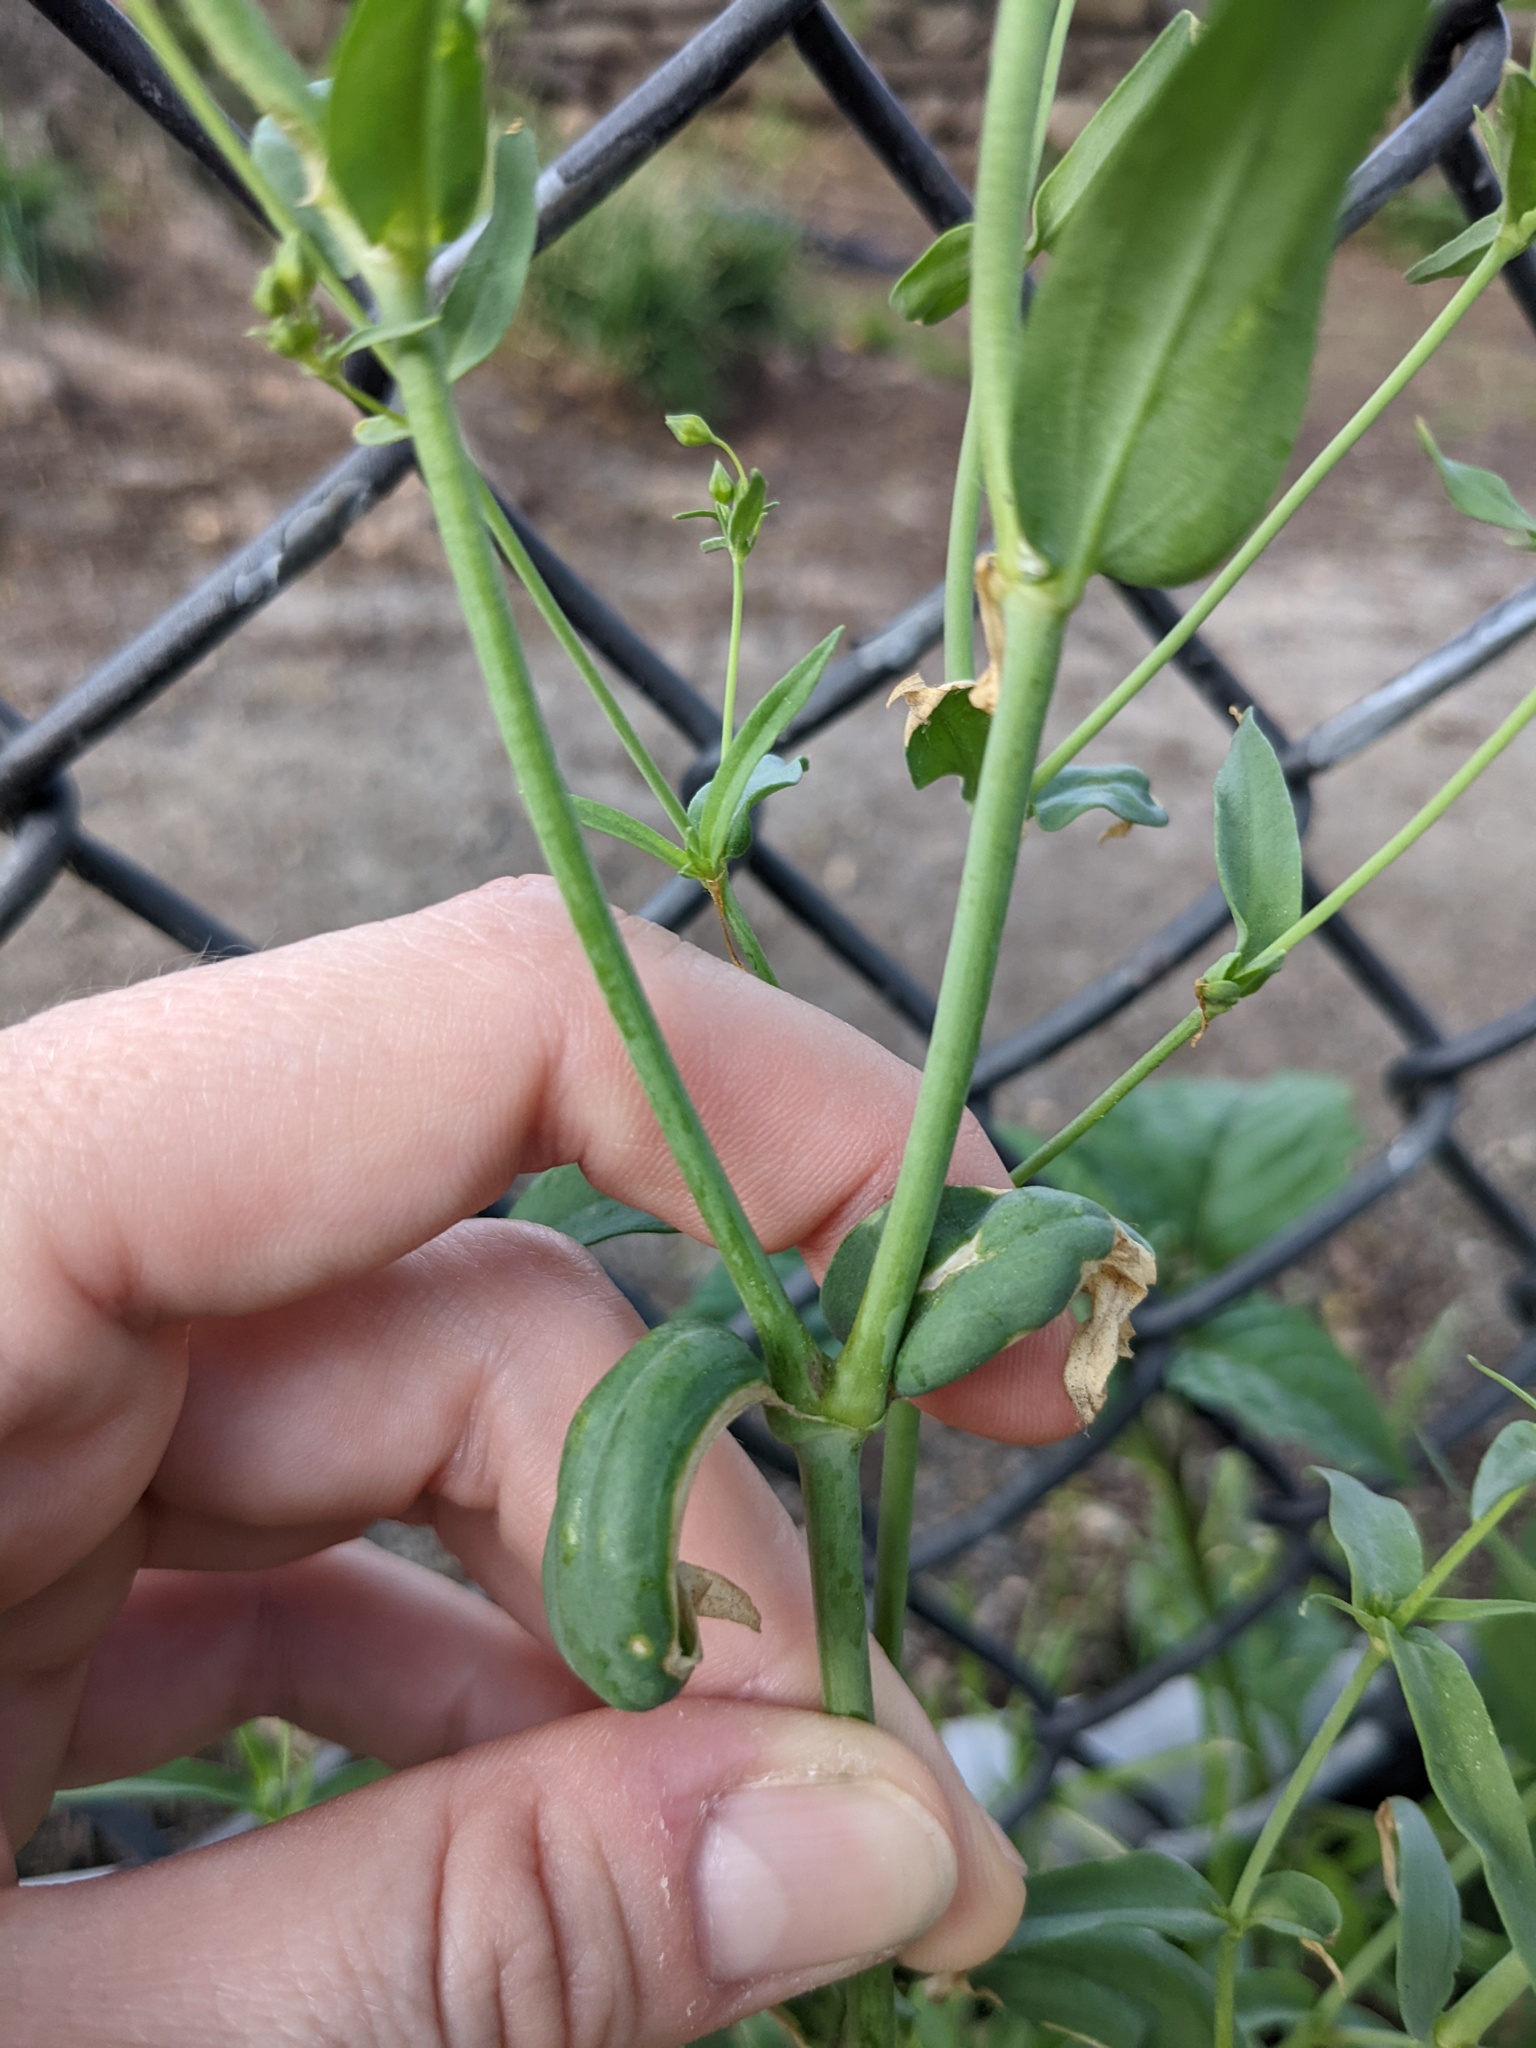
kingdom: Plantae
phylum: Tracheophyta
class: Magnoliopsida
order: Caryophyllales
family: Caryophyllaceae
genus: Atocion
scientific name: Atocion armeria
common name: Sweet william catchfly
